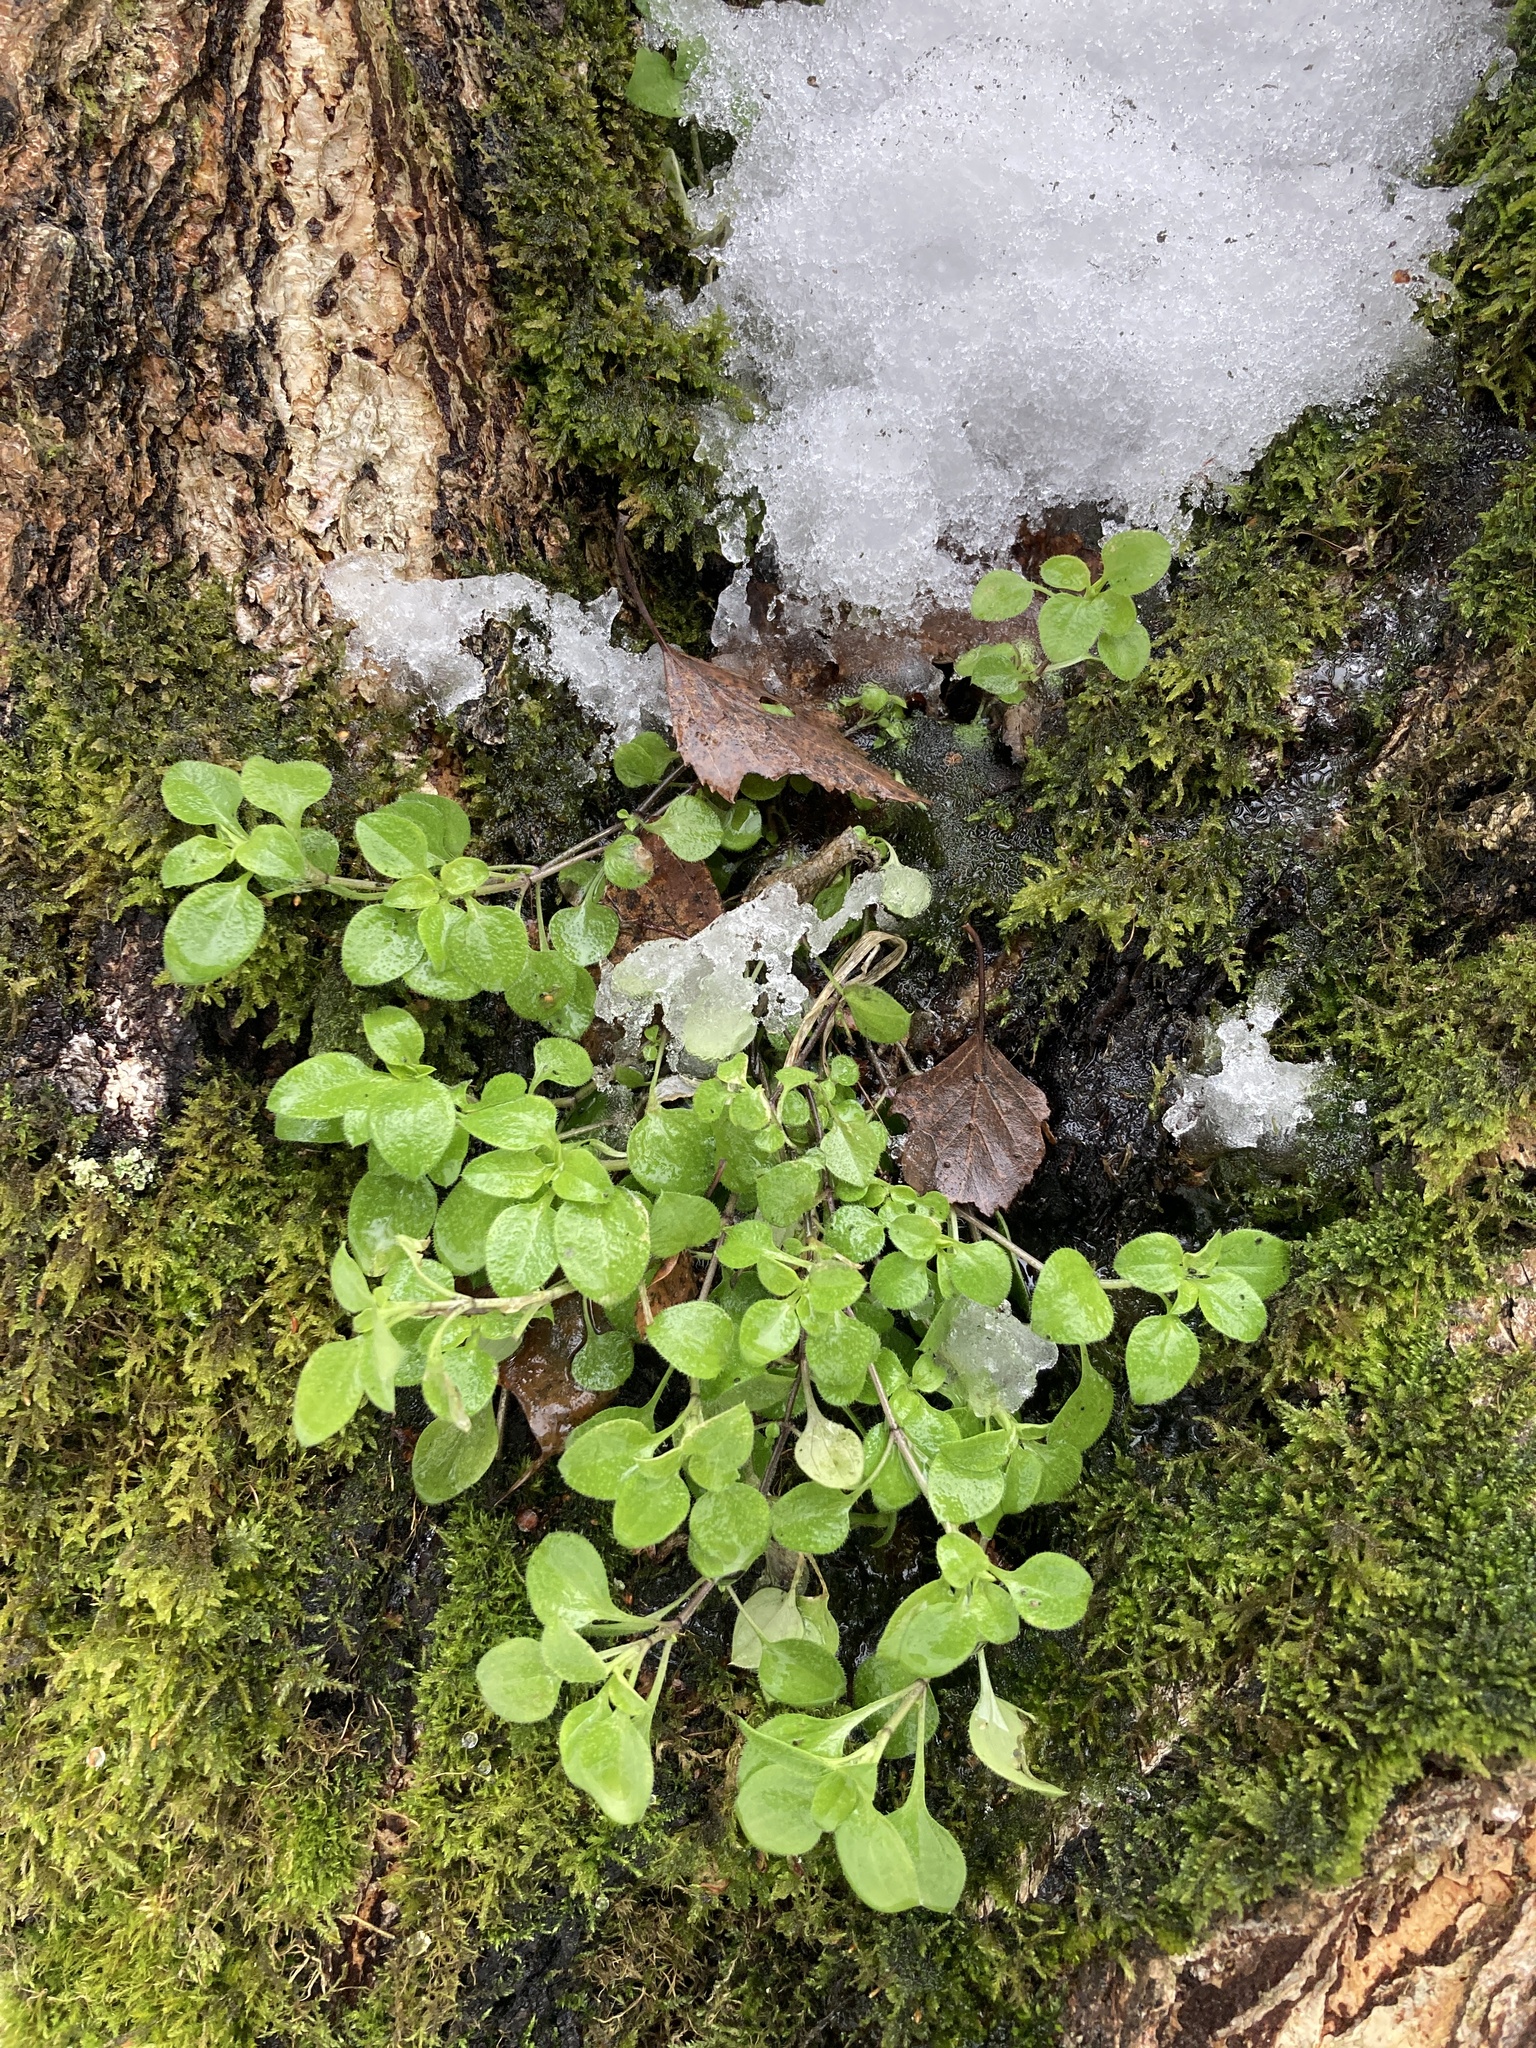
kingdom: Plantae
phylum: Tracheophyta
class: Magnoliopsida
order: Caryophyllales
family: Caryophyllaceae
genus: Moehringia
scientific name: Moehringia trinervia
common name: Three-nerved sandwort
